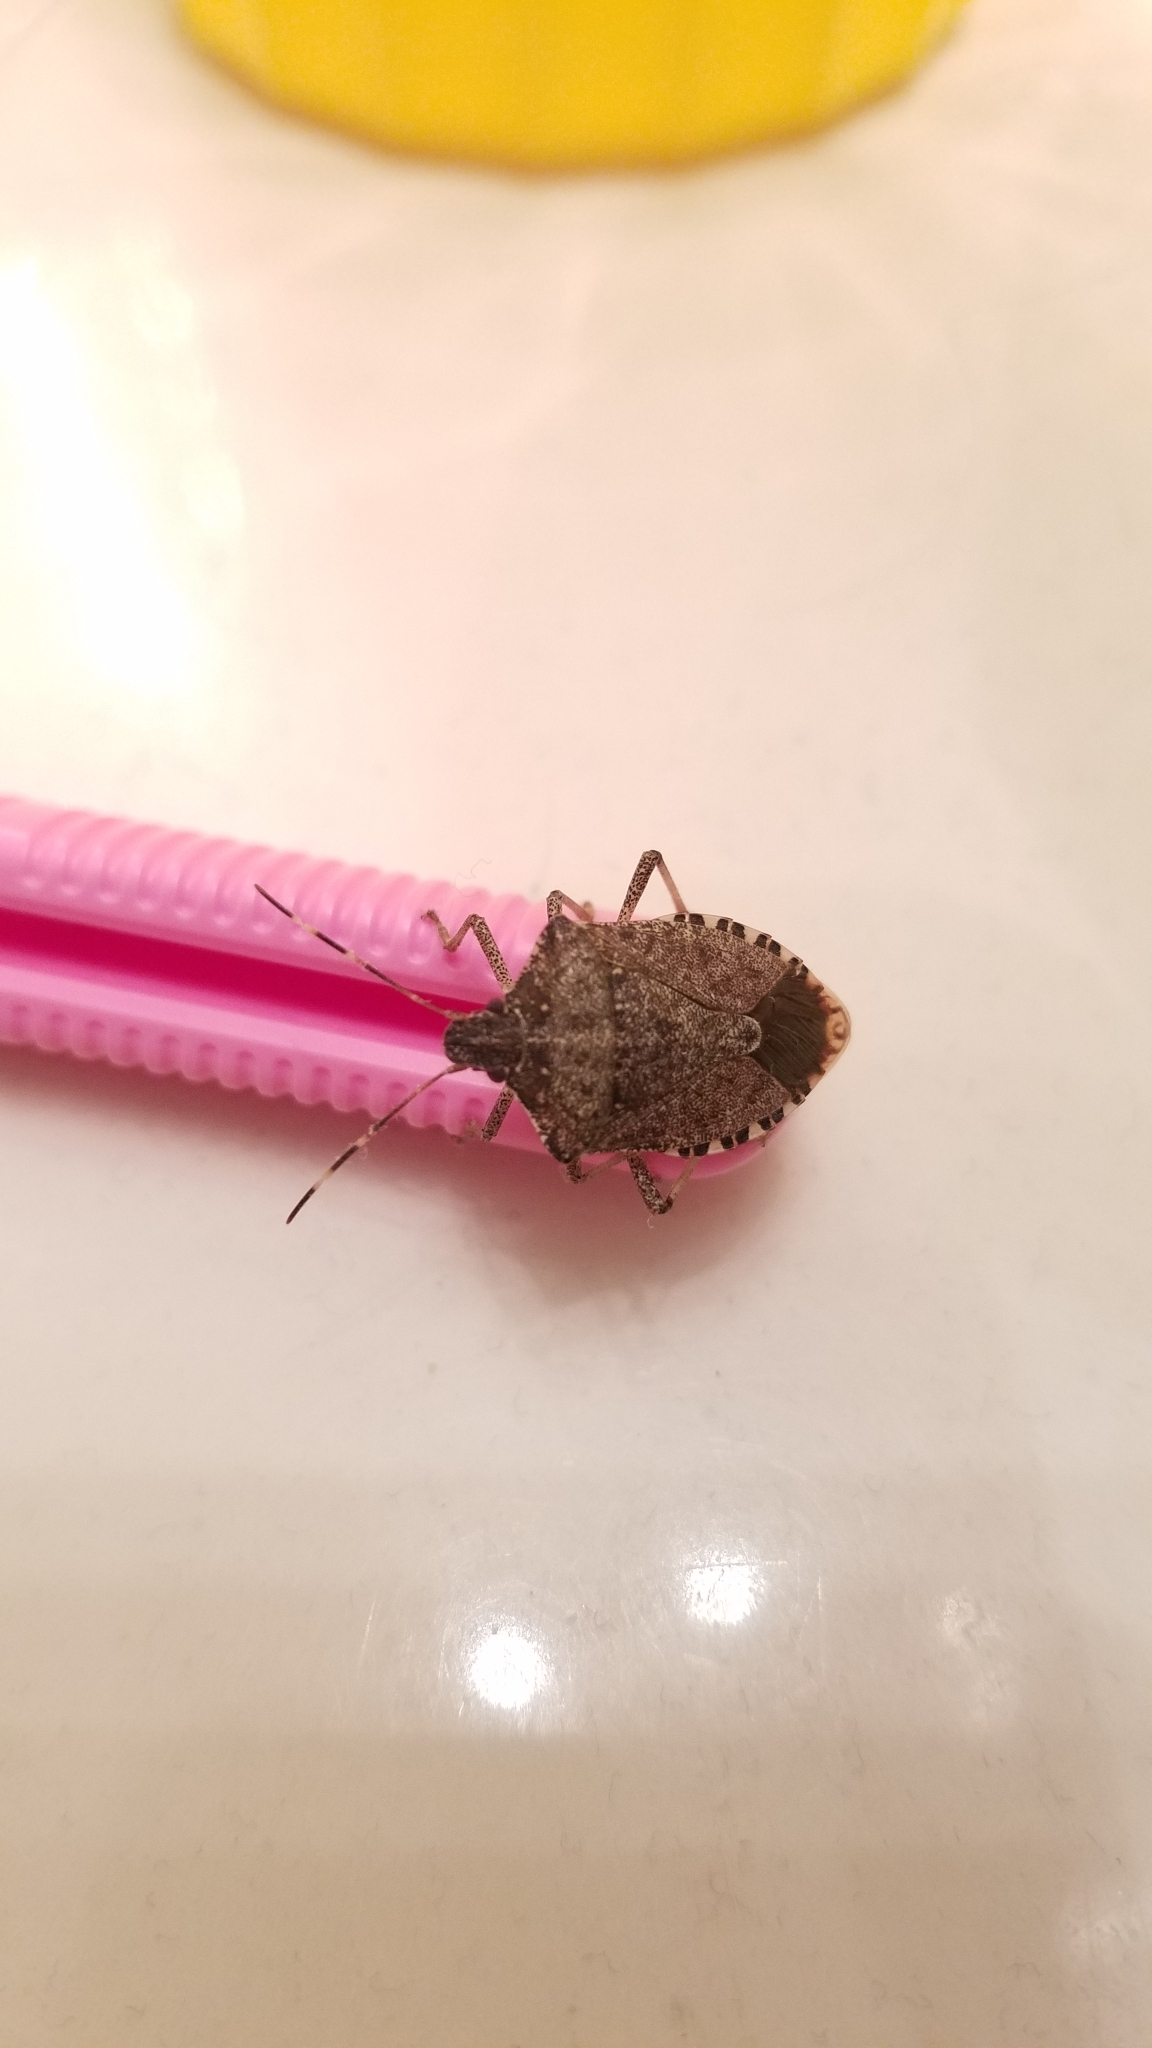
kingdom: Animalia
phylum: Arthropoda
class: Insecta
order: Hemiptera
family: Pentatomidae
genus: Halyomorpha
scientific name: Halyomorpha halys
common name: Brown marmorated stink bug
